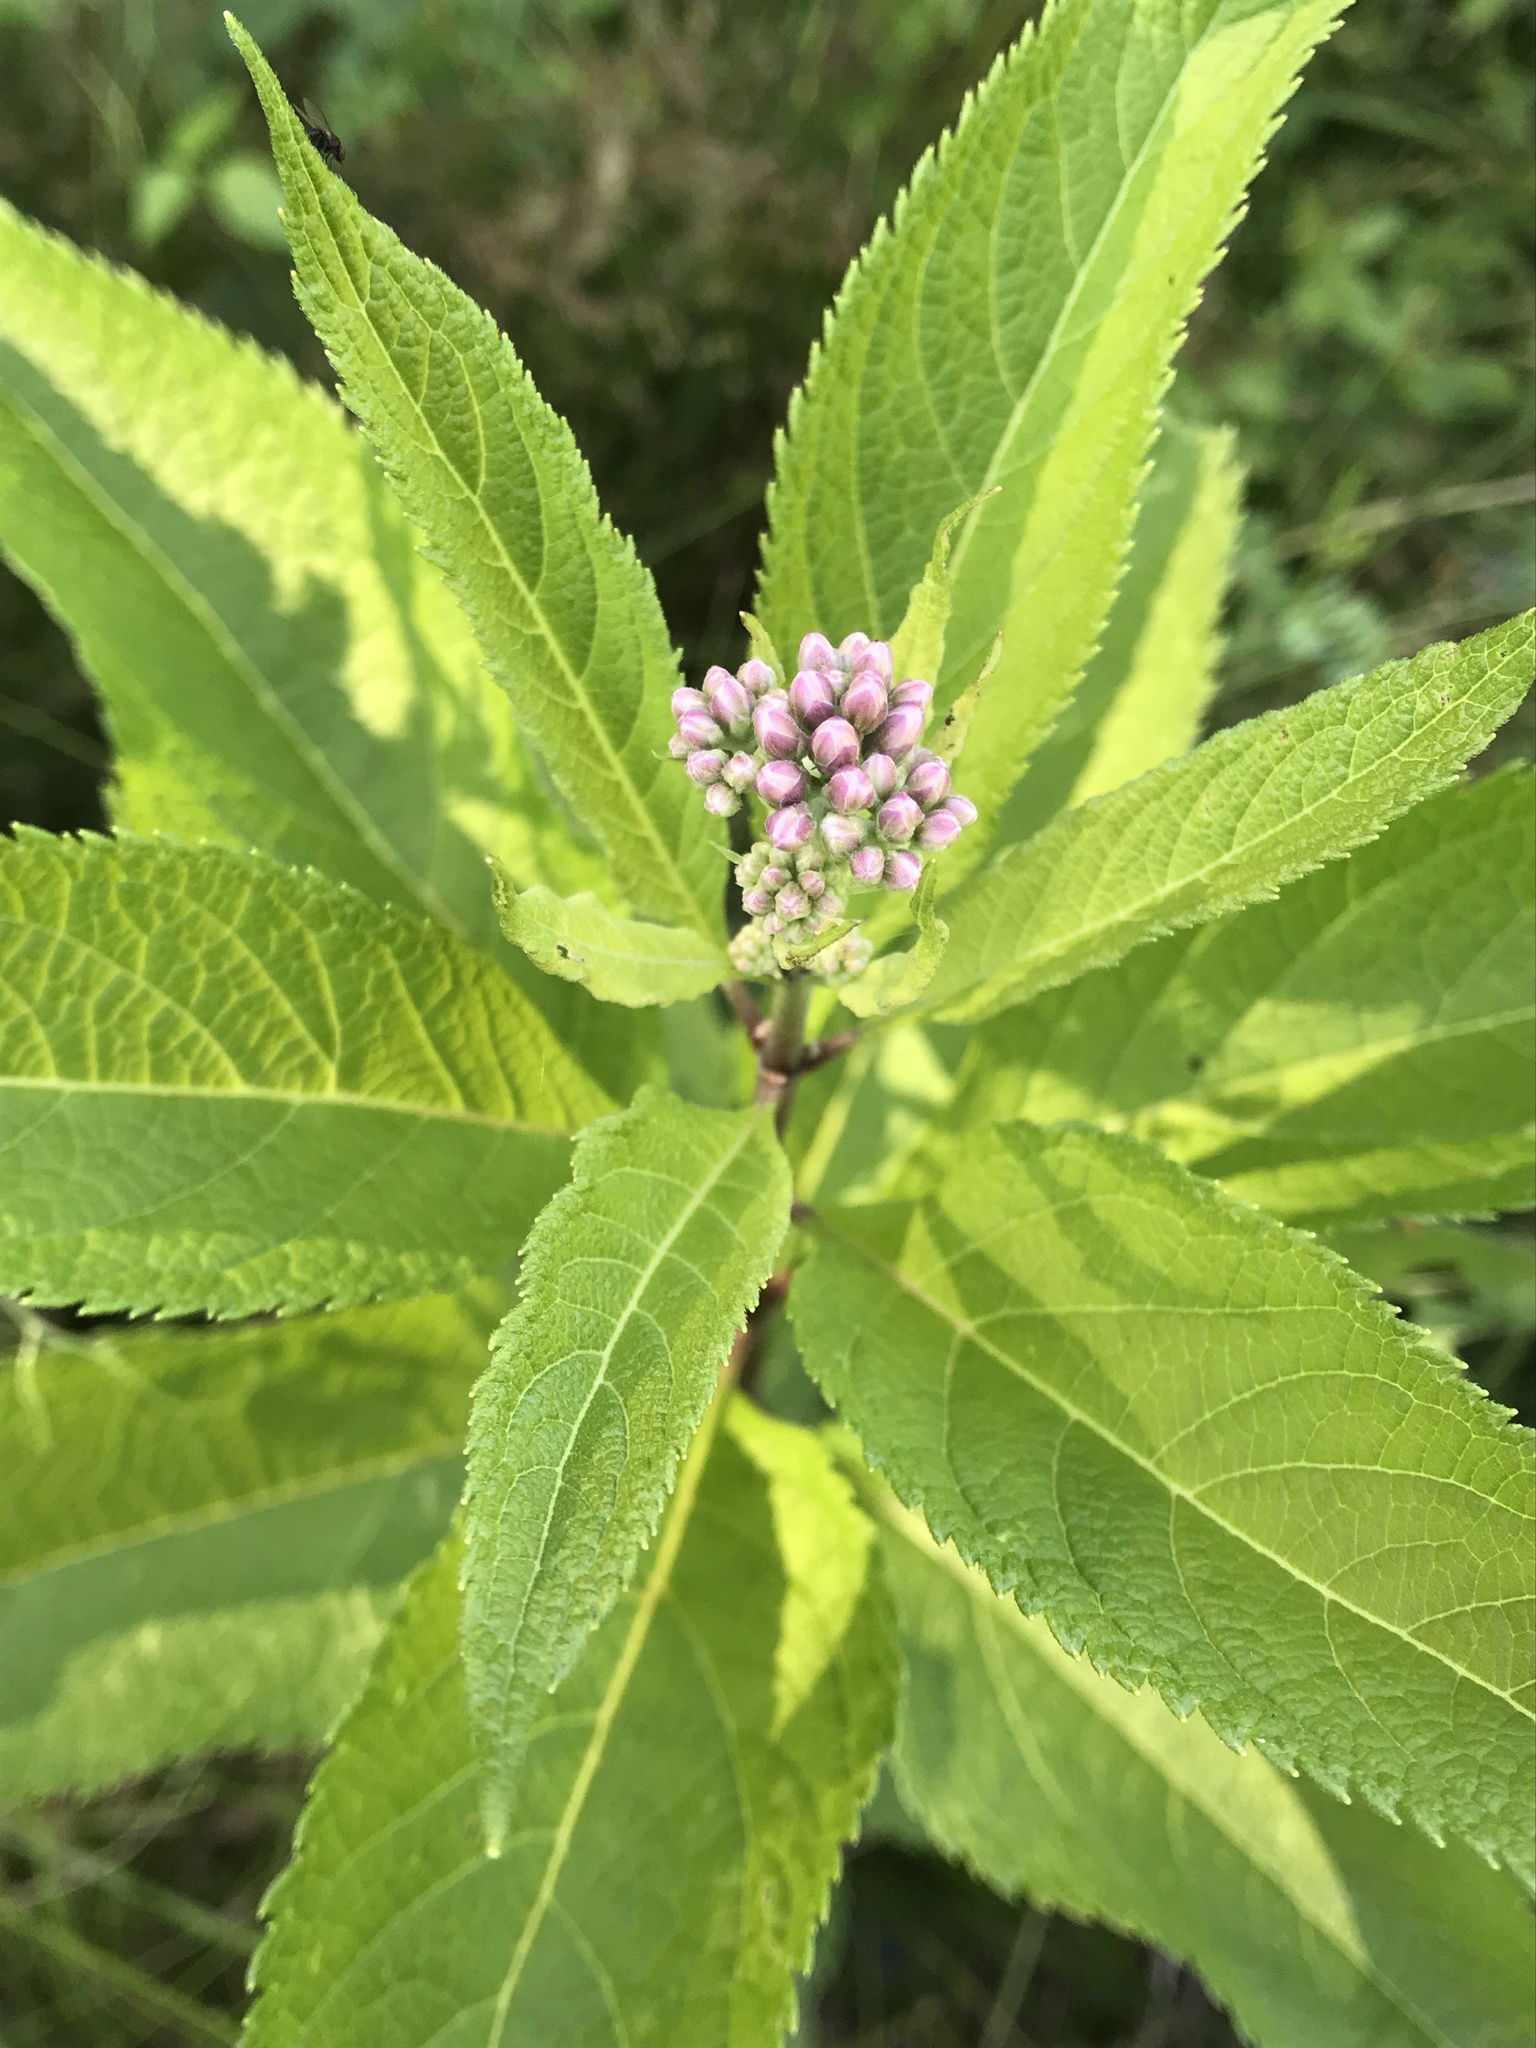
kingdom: Plantae
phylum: Tracheophyta
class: Magnoliopsida
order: Asterales
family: Asteraceae
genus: Eutrochium
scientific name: Eutrochium maculatum
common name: Spotted joe pye weed
